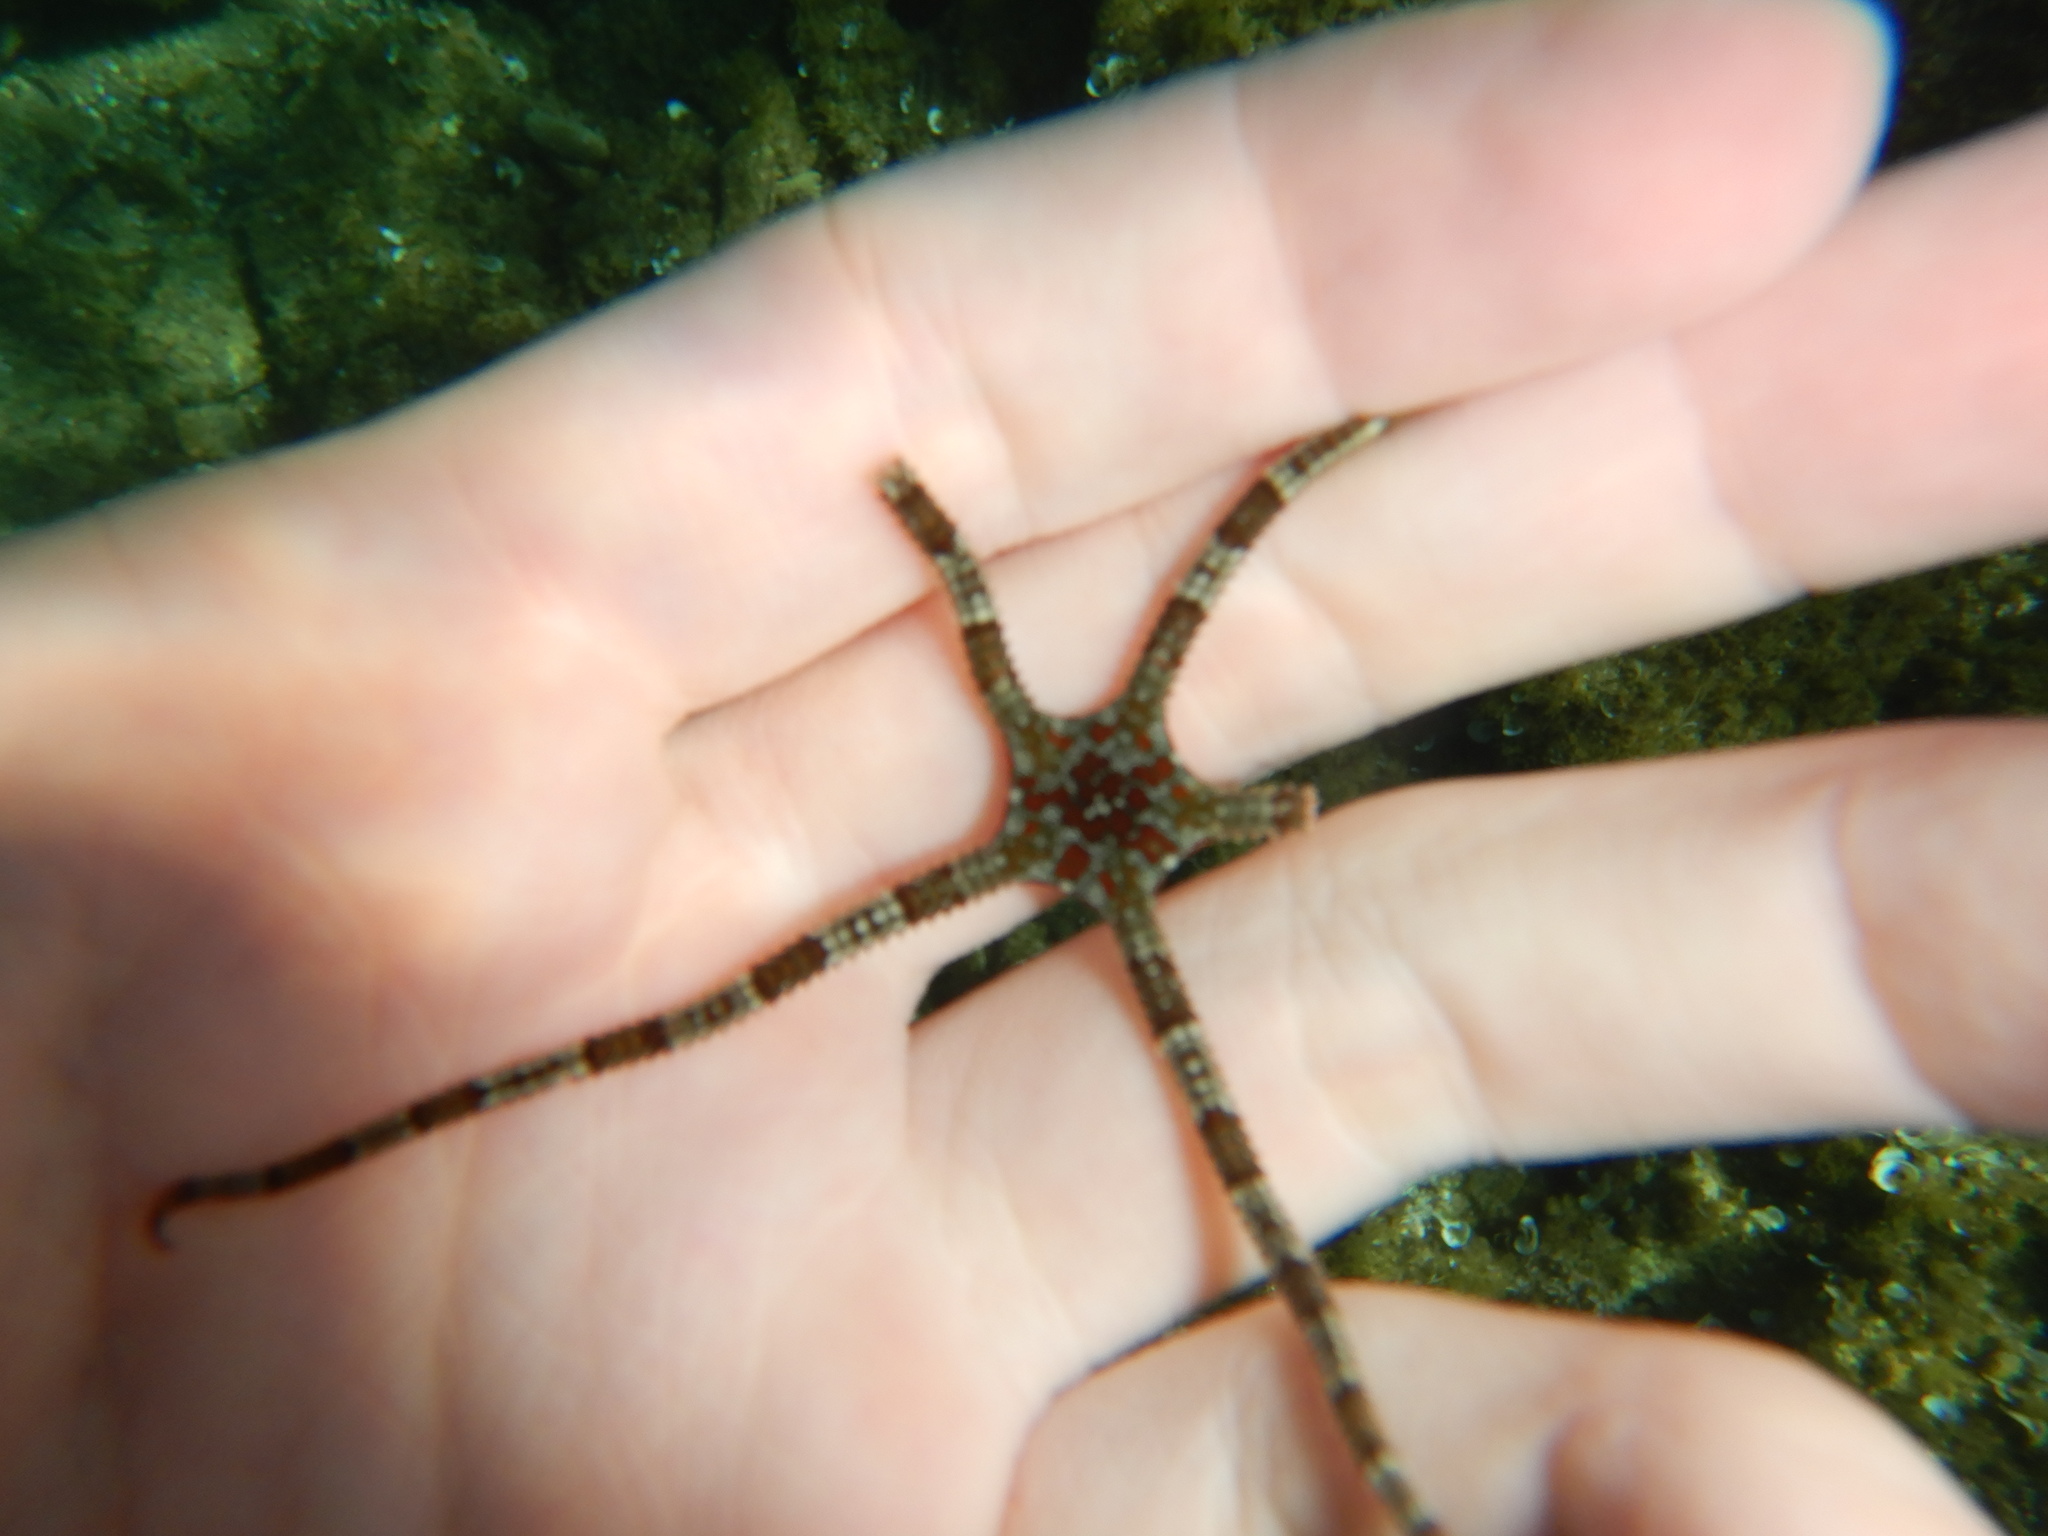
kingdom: Animalia
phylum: Echinodermata
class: Ophiuroidea
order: Ophiacanthida
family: Ophiodermatidae
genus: Ophioderma
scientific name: Ophioderma longicaudum
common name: Smooth brittle-star
